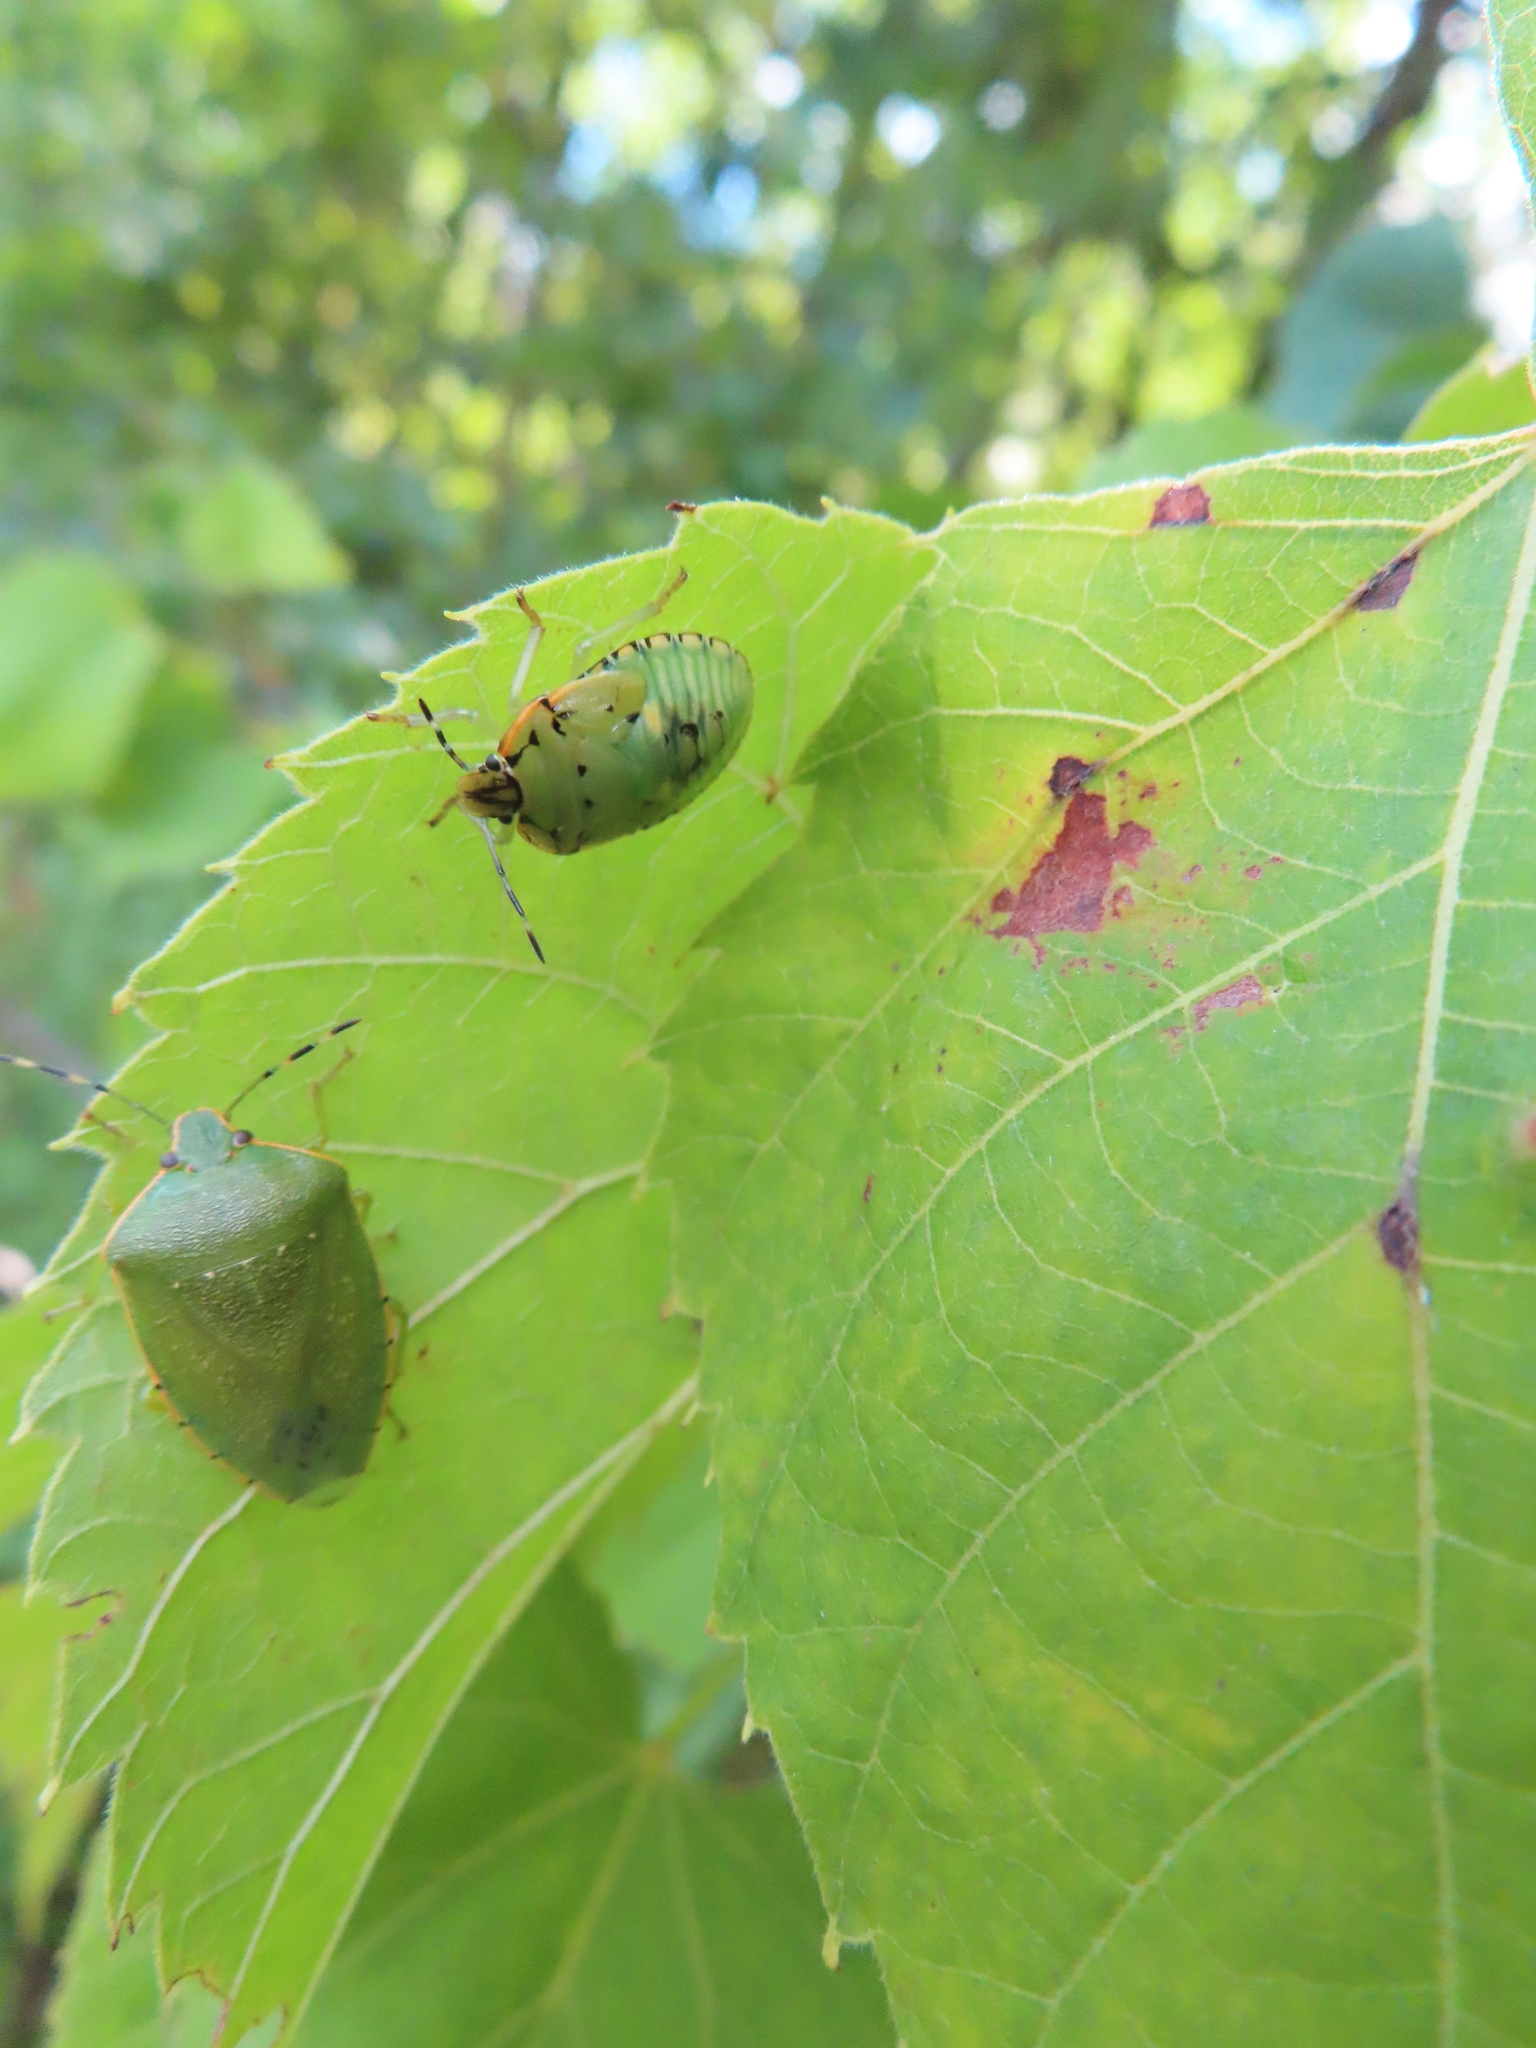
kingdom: Animalia
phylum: Arthropoda
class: Insecta
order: Hemiptera
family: Pentatomidae
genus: Chinavia
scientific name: Chinavia hilaris
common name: Green stink bug
